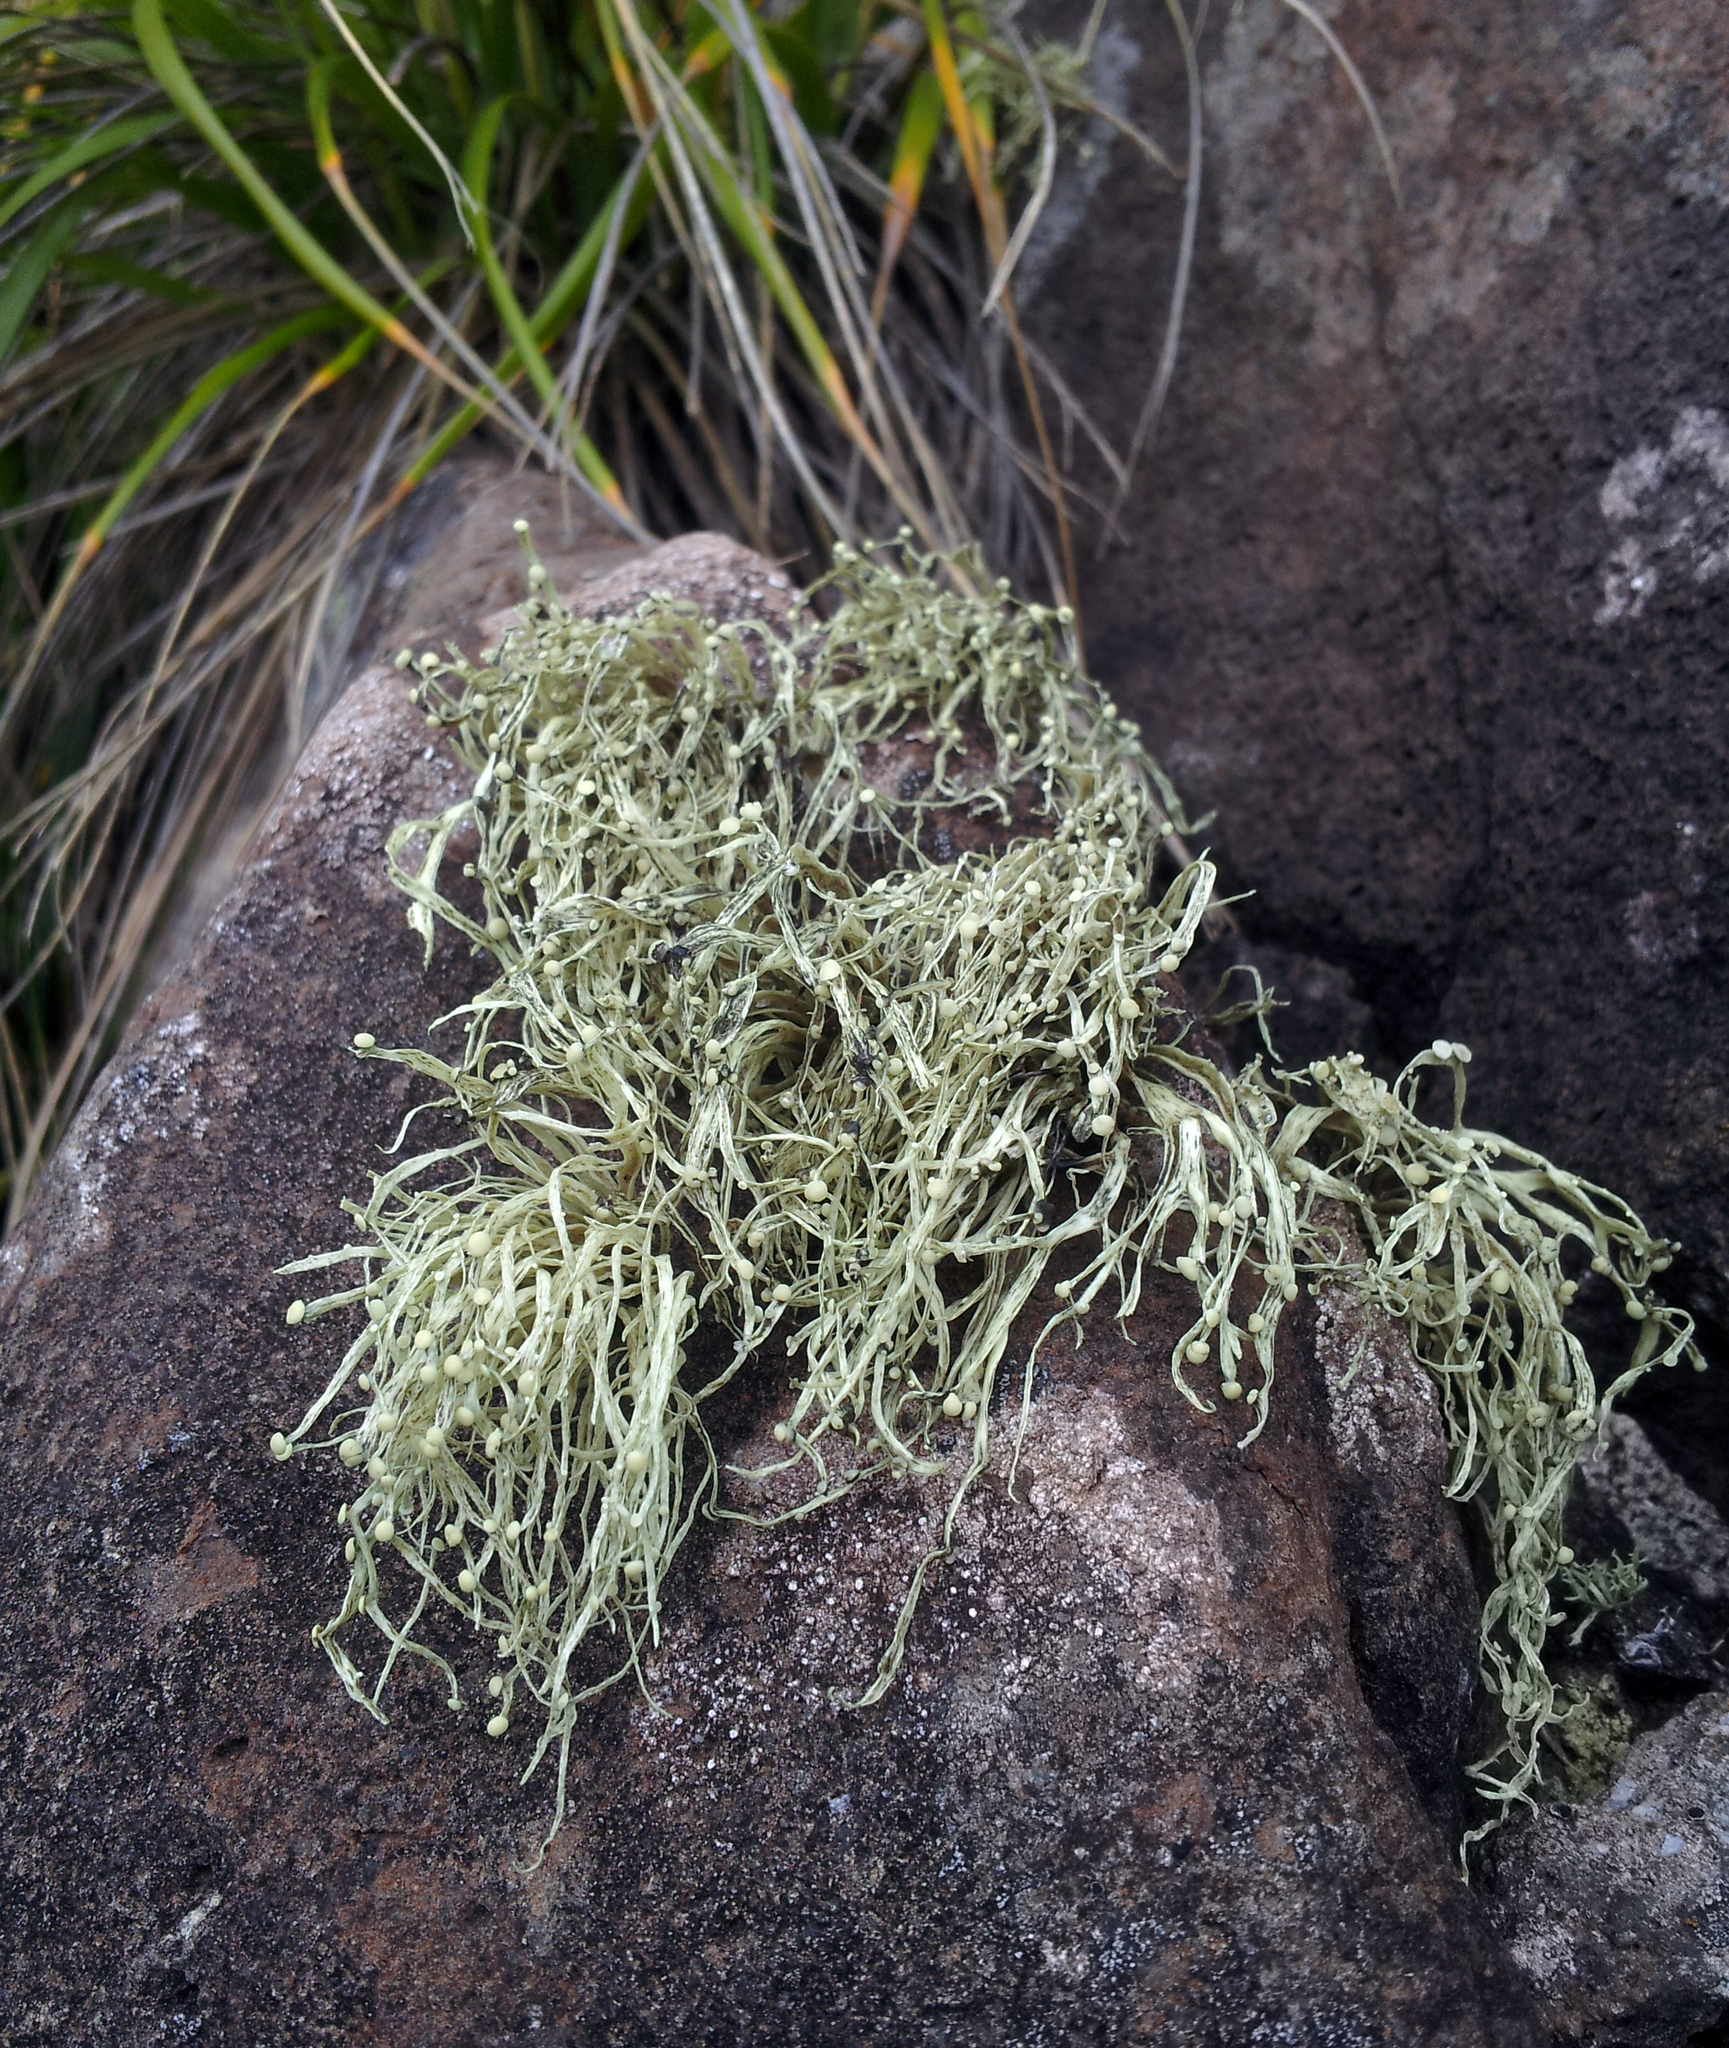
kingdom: Fungi
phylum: Ascomycota
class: Lecanoromycetes
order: Lecanorales
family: Ramalinaceae
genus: Ramalina
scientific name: Ramalina celastri
